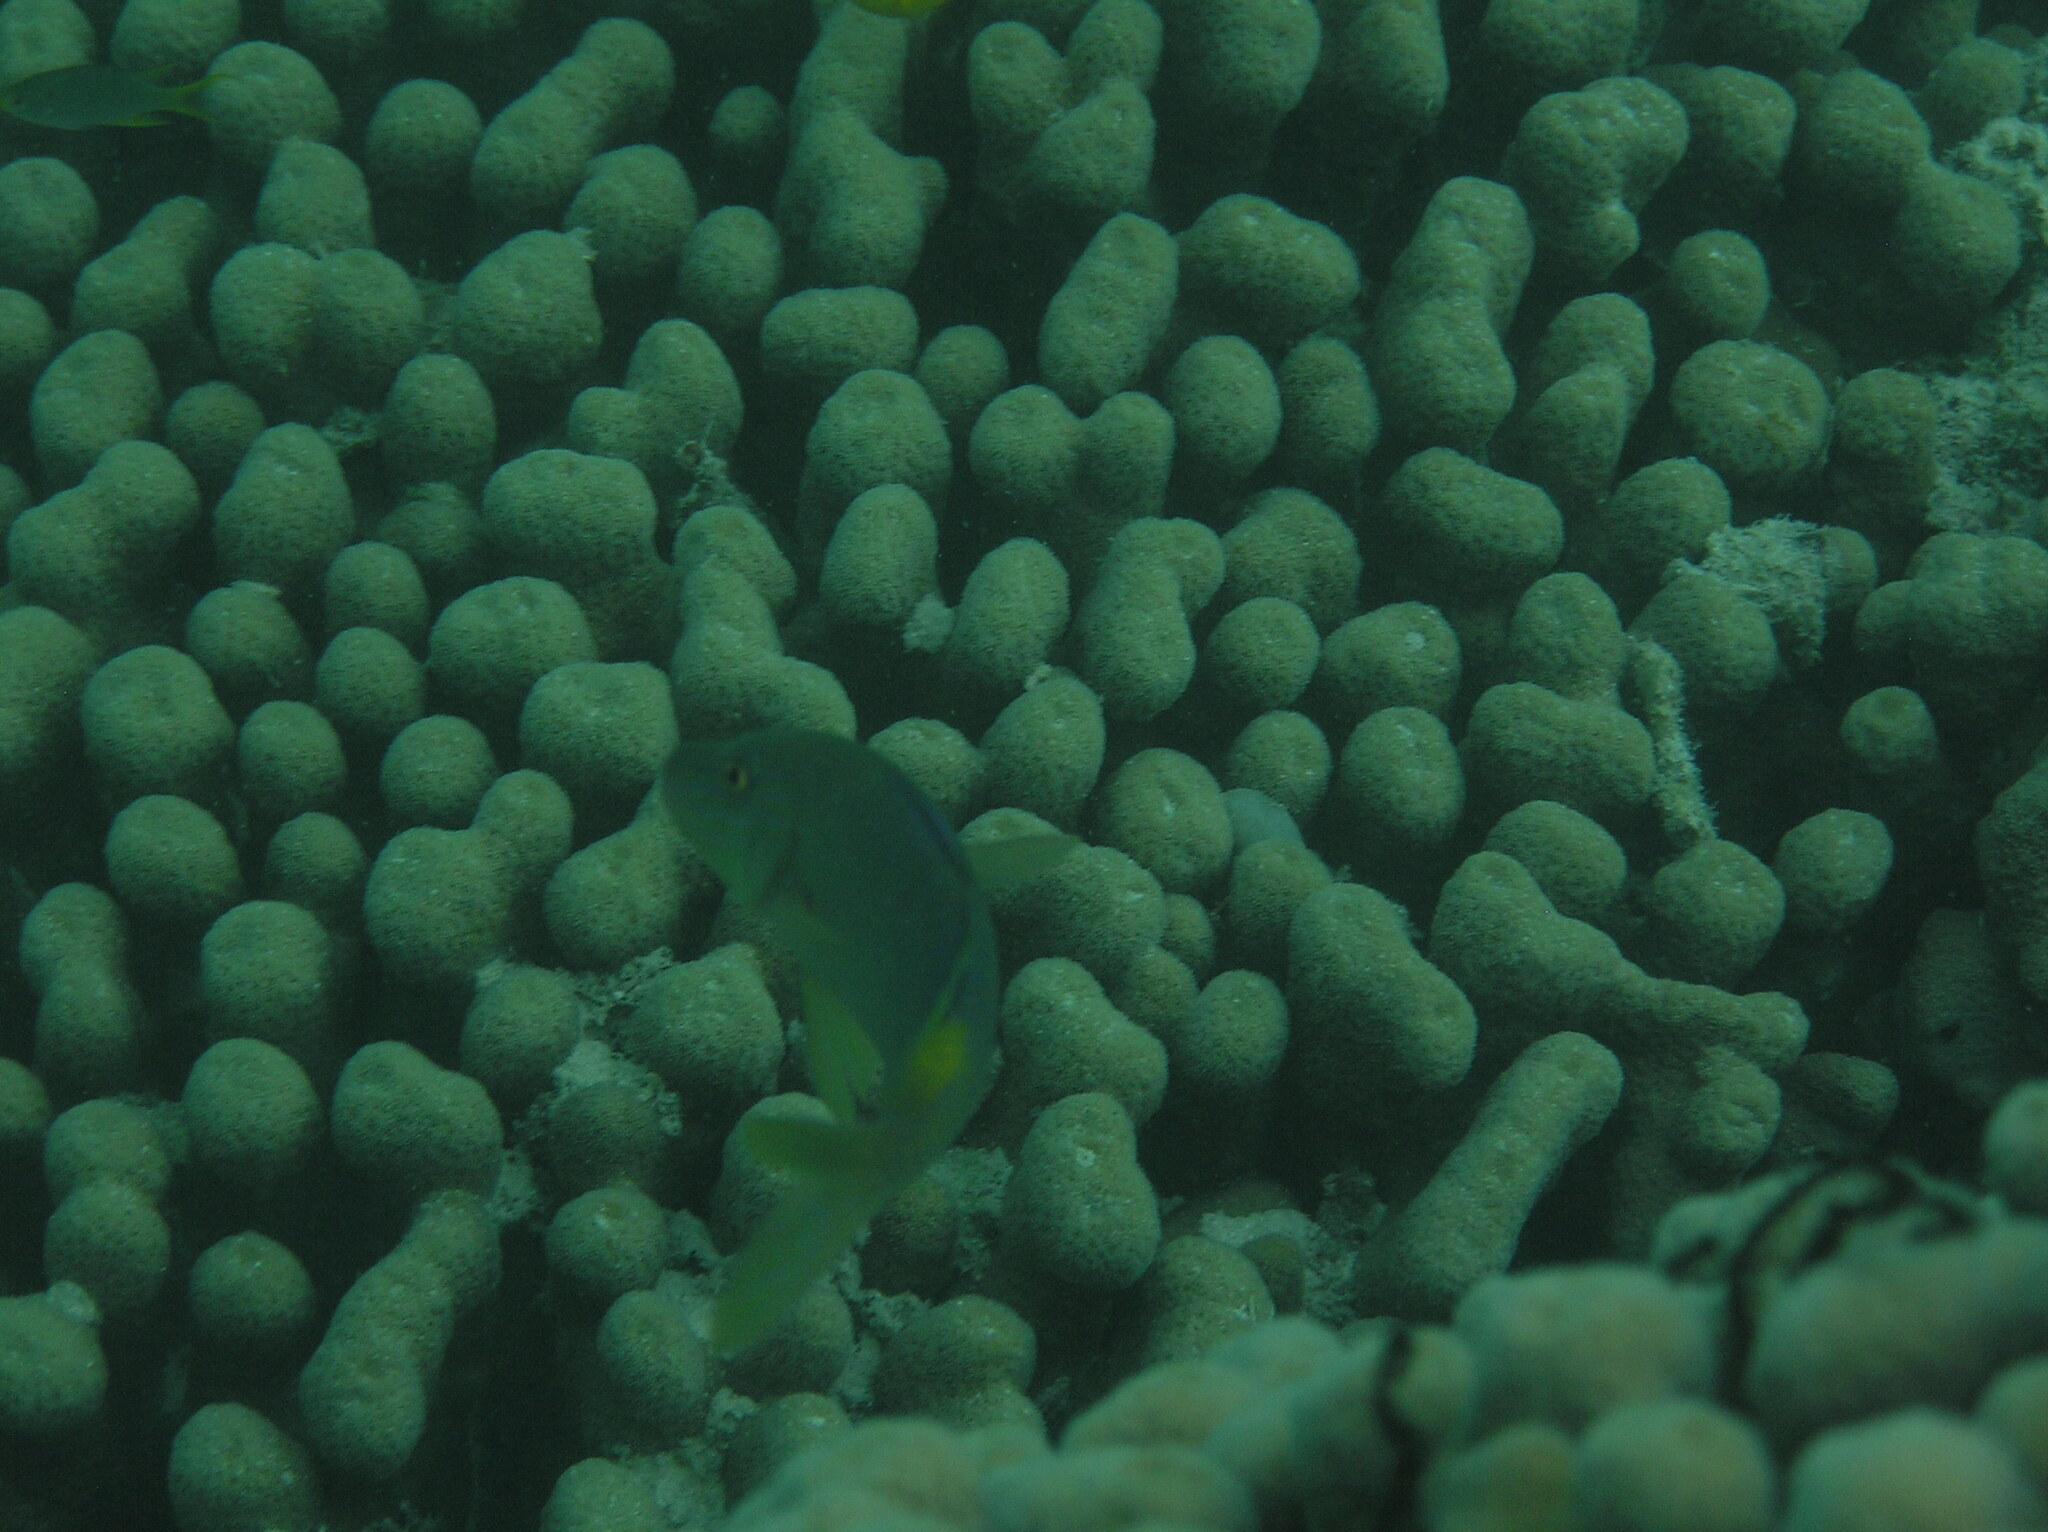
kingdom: Animalia
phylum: Chordata
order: Perciformes
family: Mullidae
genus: Parupeneus
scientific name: Parupeneus cyclostomus
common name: Goldsaddle goatfish
